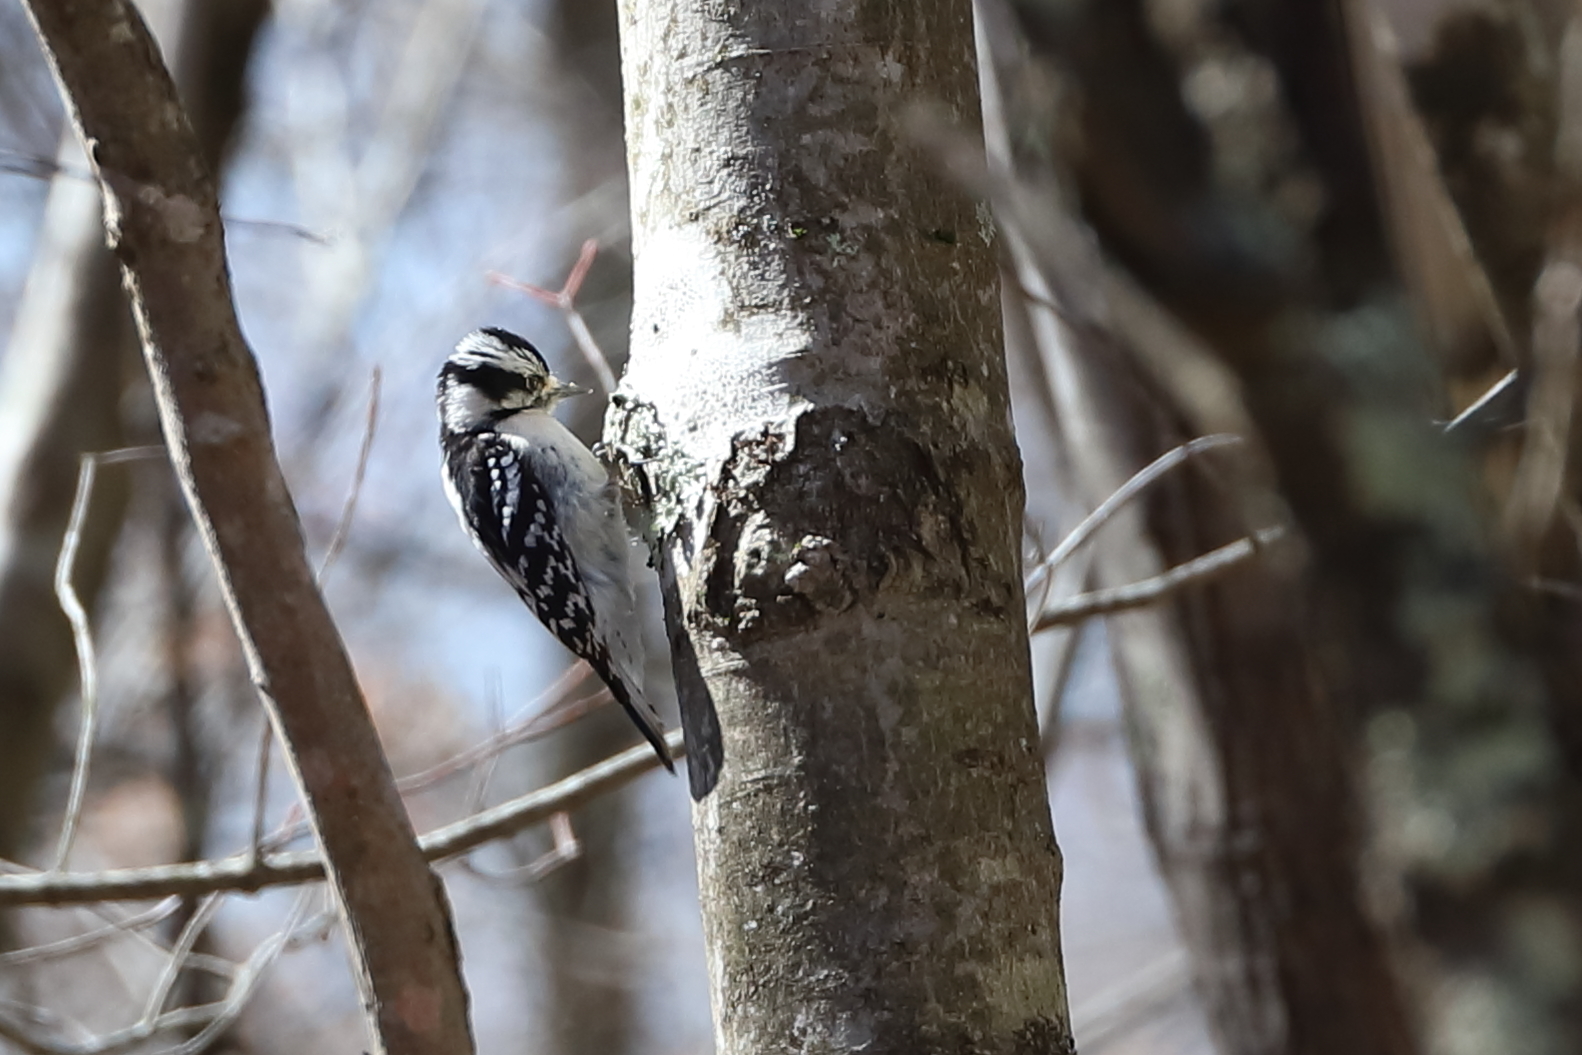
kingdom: Animalia
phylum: Chordata
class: Aves
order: Piciformes
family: Picidae
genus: Dryobates
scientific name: Dryobates pubescens
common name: Downy woodpecker
